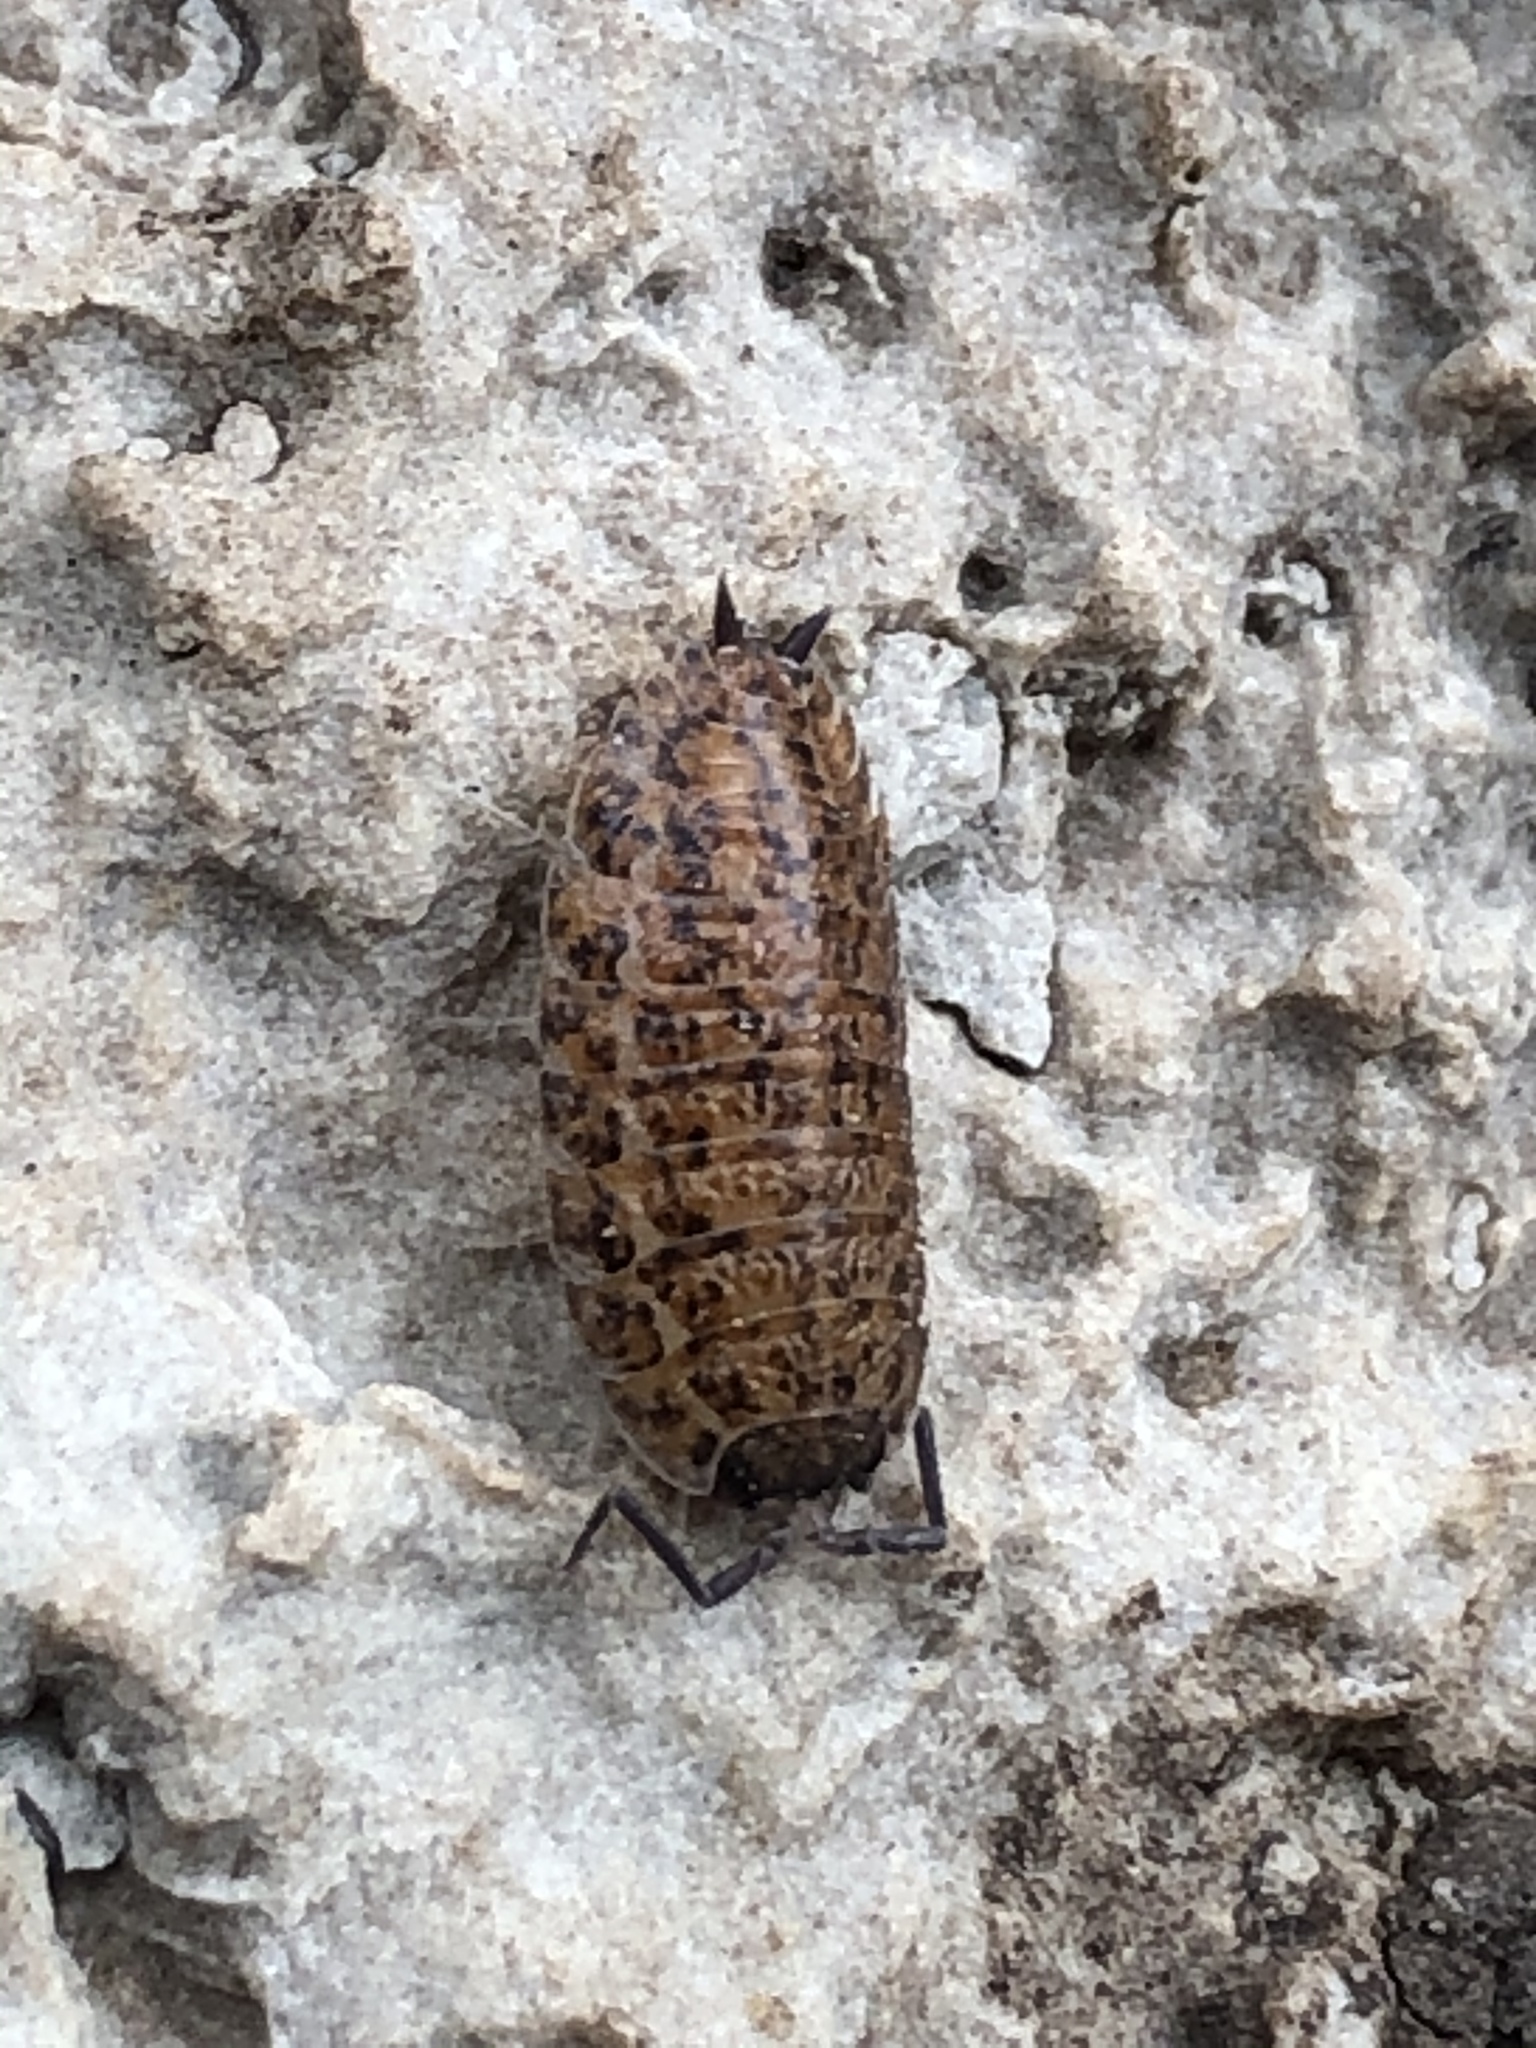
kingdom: Animalia
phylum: Arthropoda
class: Malacostraca
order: Isopoda
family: Trachelipodidae
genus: Trachelipus
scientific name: Trachelipus rathkii
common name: Isopod
